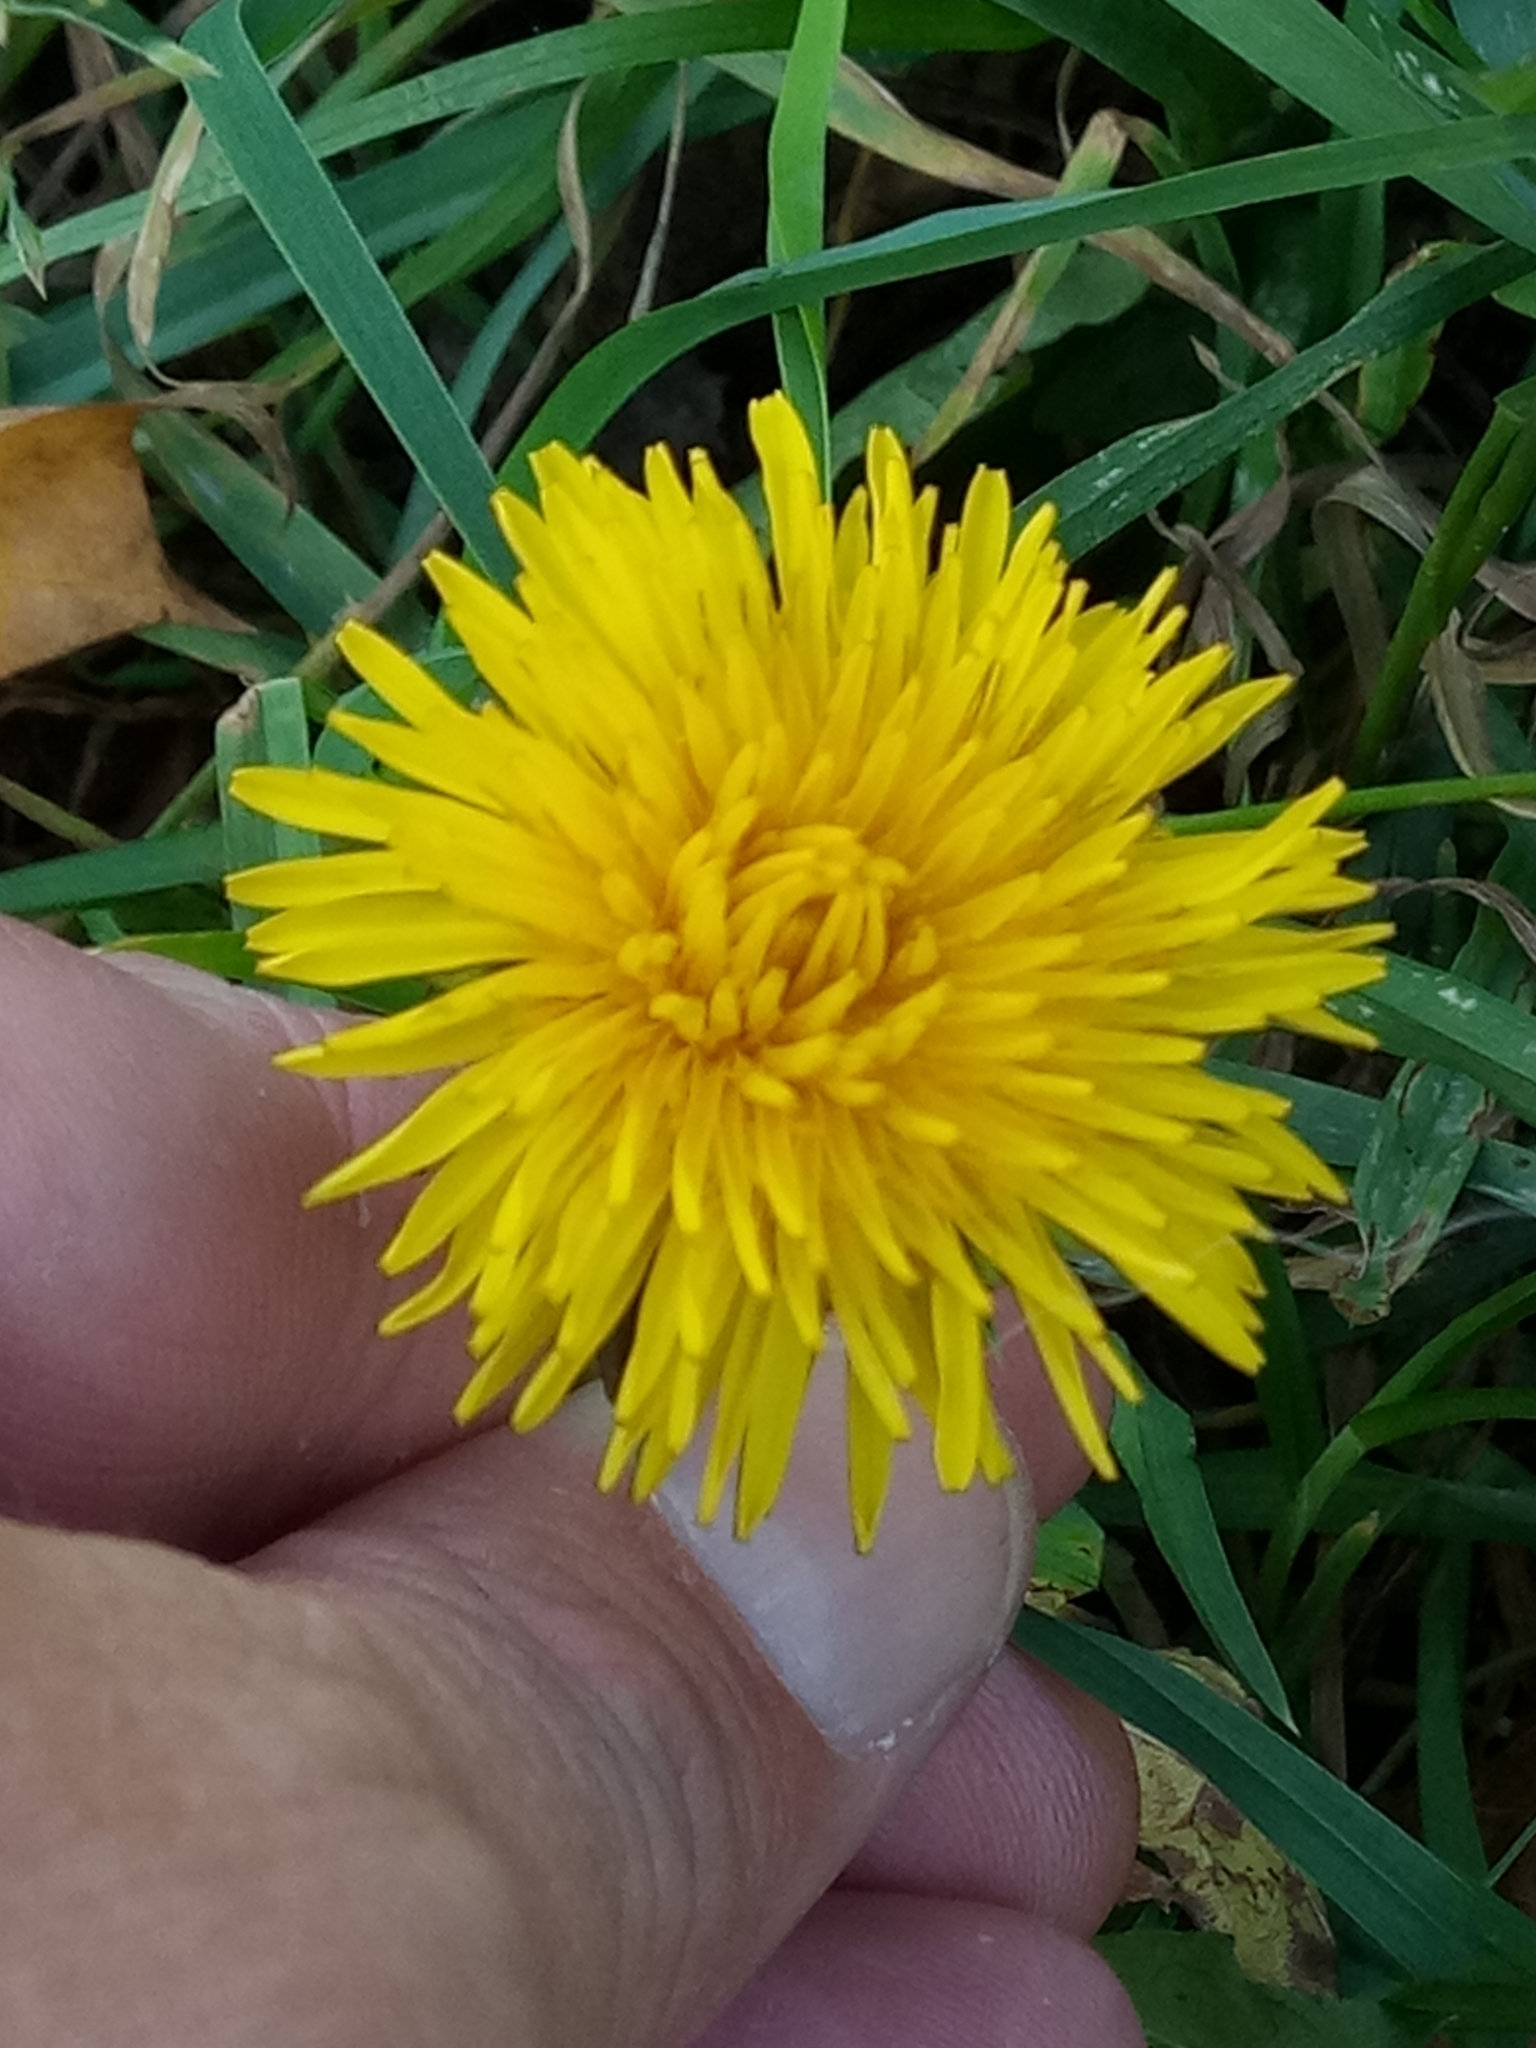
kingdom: Plantae
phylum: Tracheophyta
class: Magnoliopsida
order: Asterales
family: Asteraceae
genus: Taraxacum
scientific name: Taraxacum officinale
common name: Common dandelion
